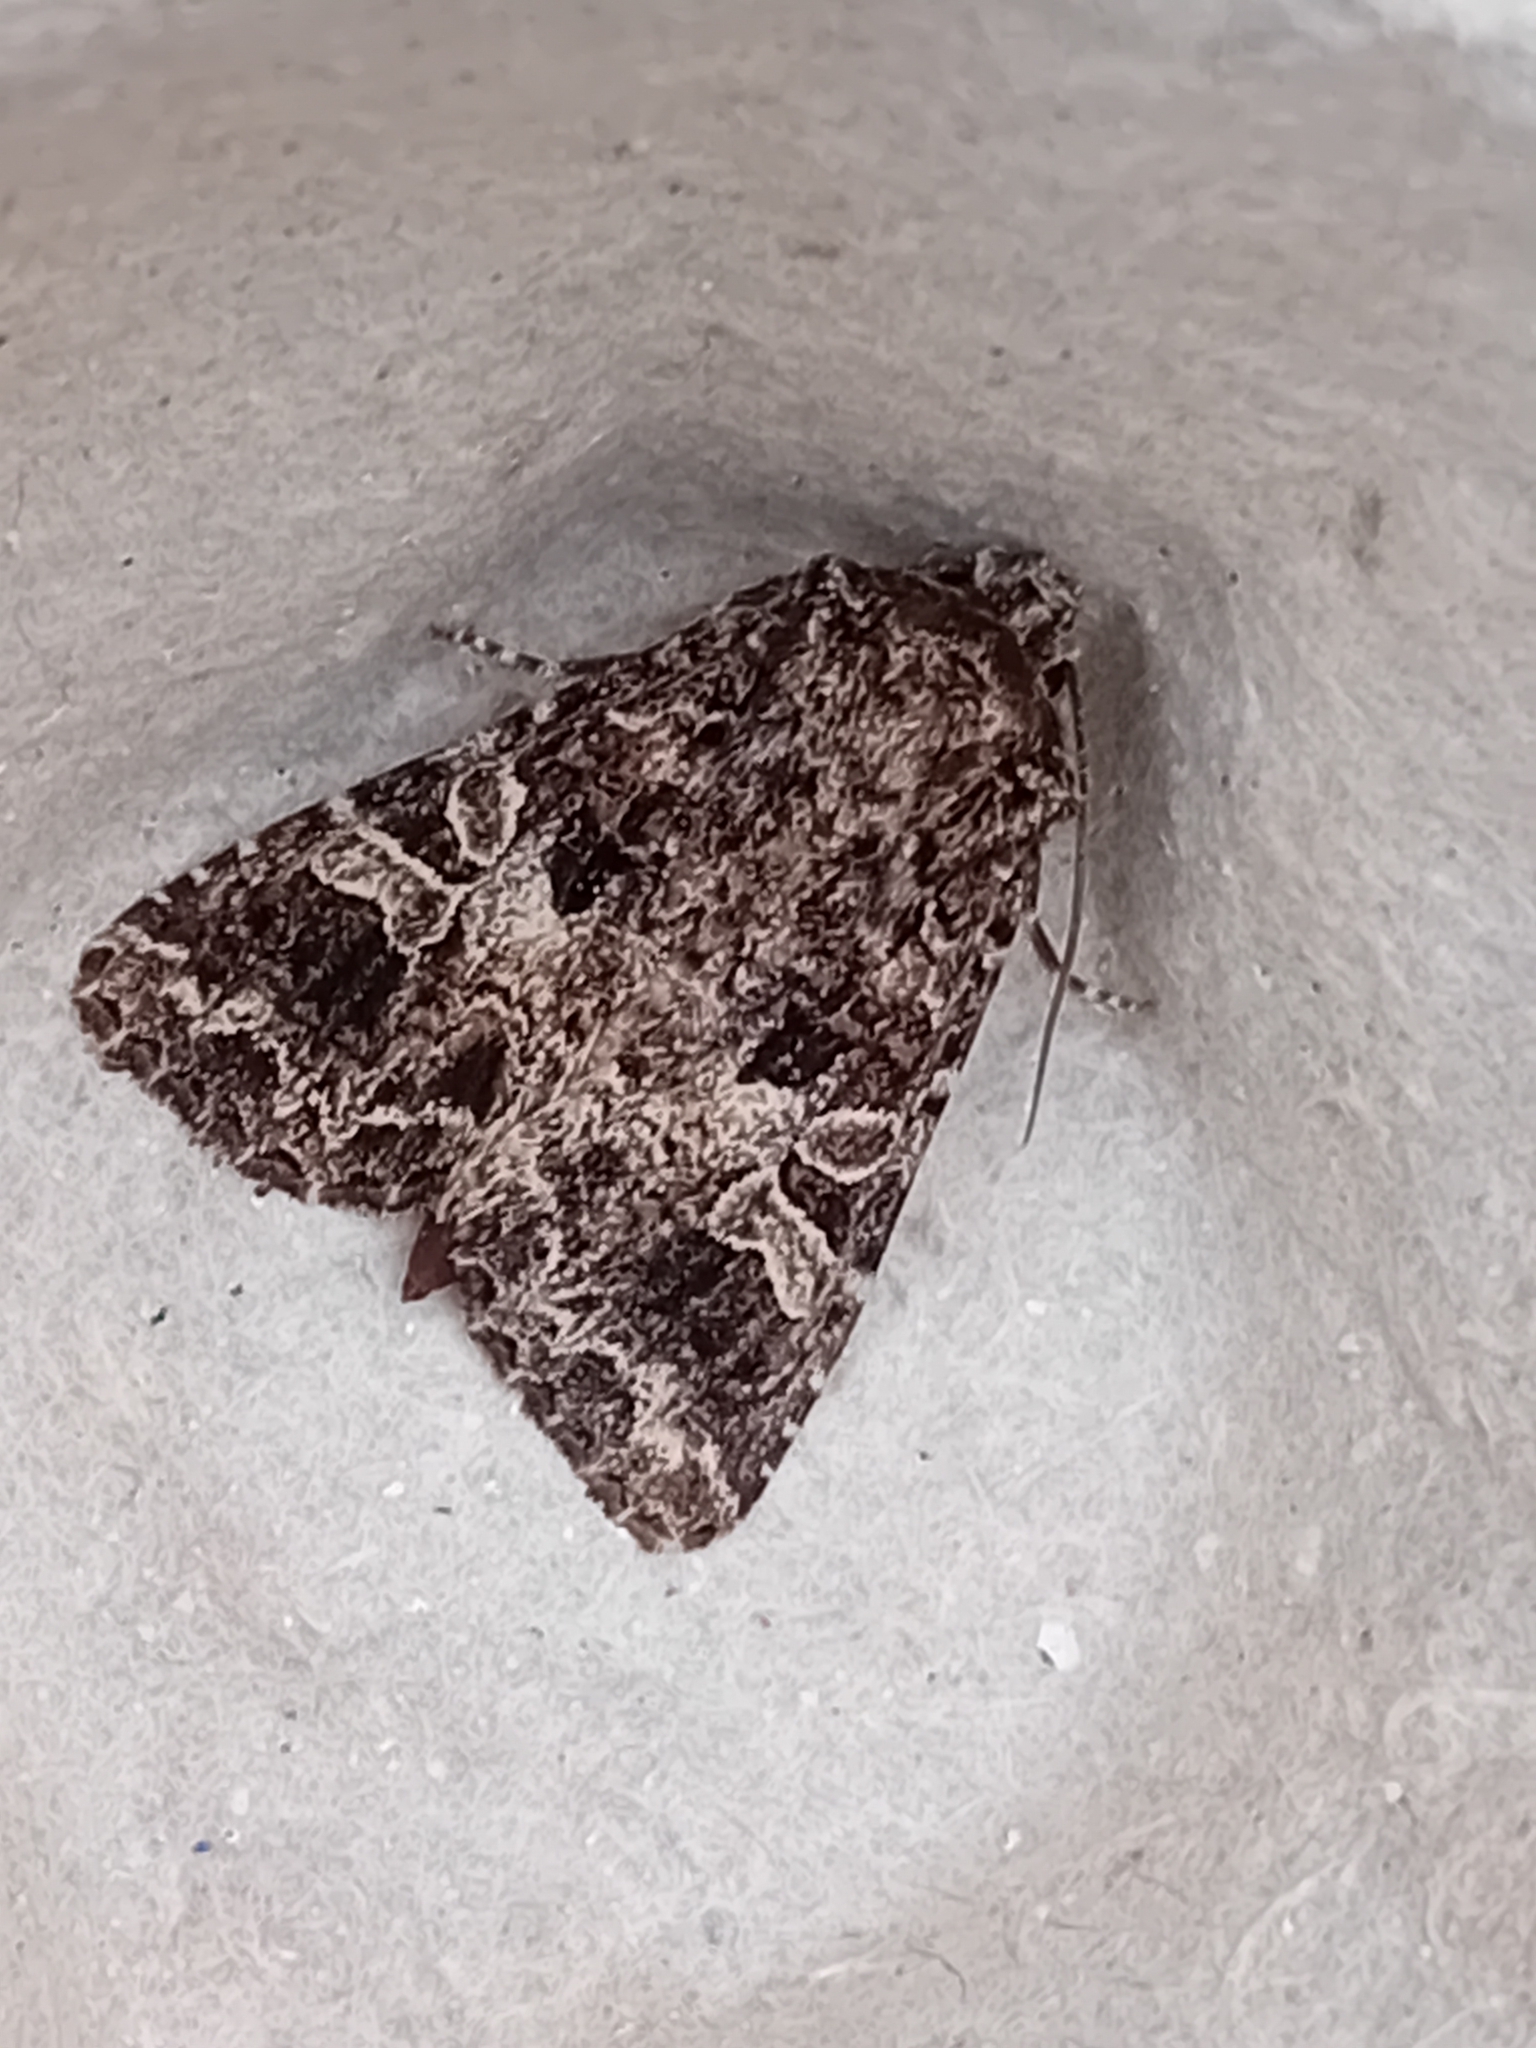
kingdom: Animalia
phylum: Arthropoda
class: Insecta
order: Lepidoptera
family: Noctuidae
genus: Hadena
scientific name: Hadena bicruris
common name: Lychnis
